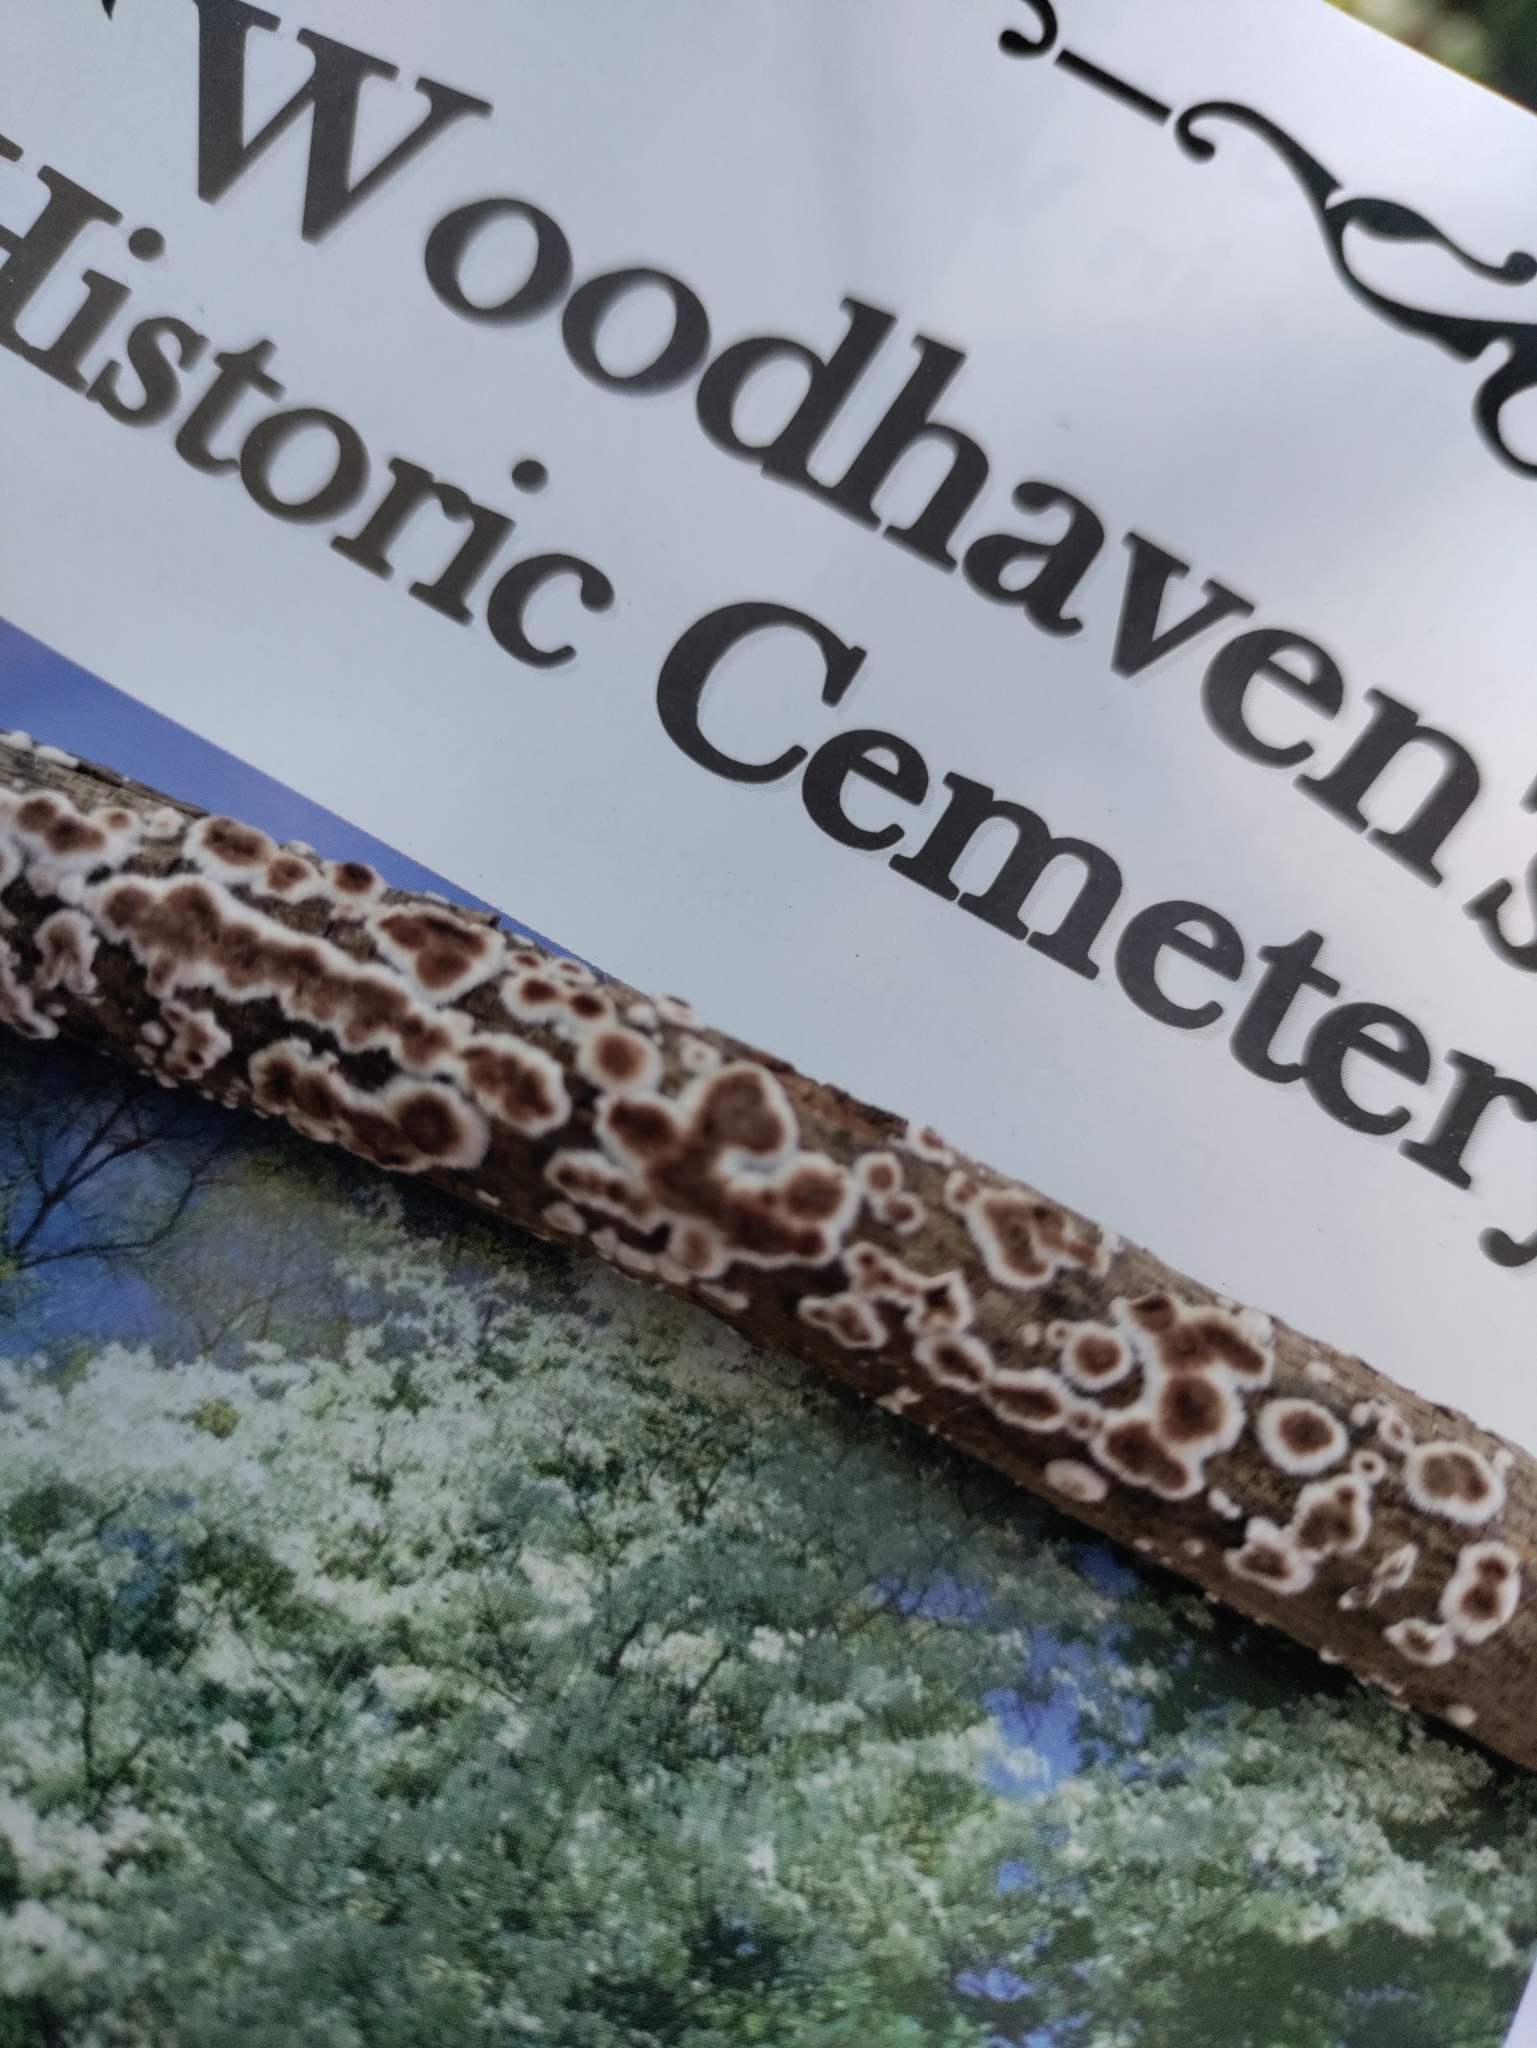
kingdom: Fungi
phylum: Basidiomycota
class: Agaricomycetes
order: Russulales
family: Peniophoraceae
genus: Peniophora
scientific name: Peniophora albobadia
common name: Giraffe spots
